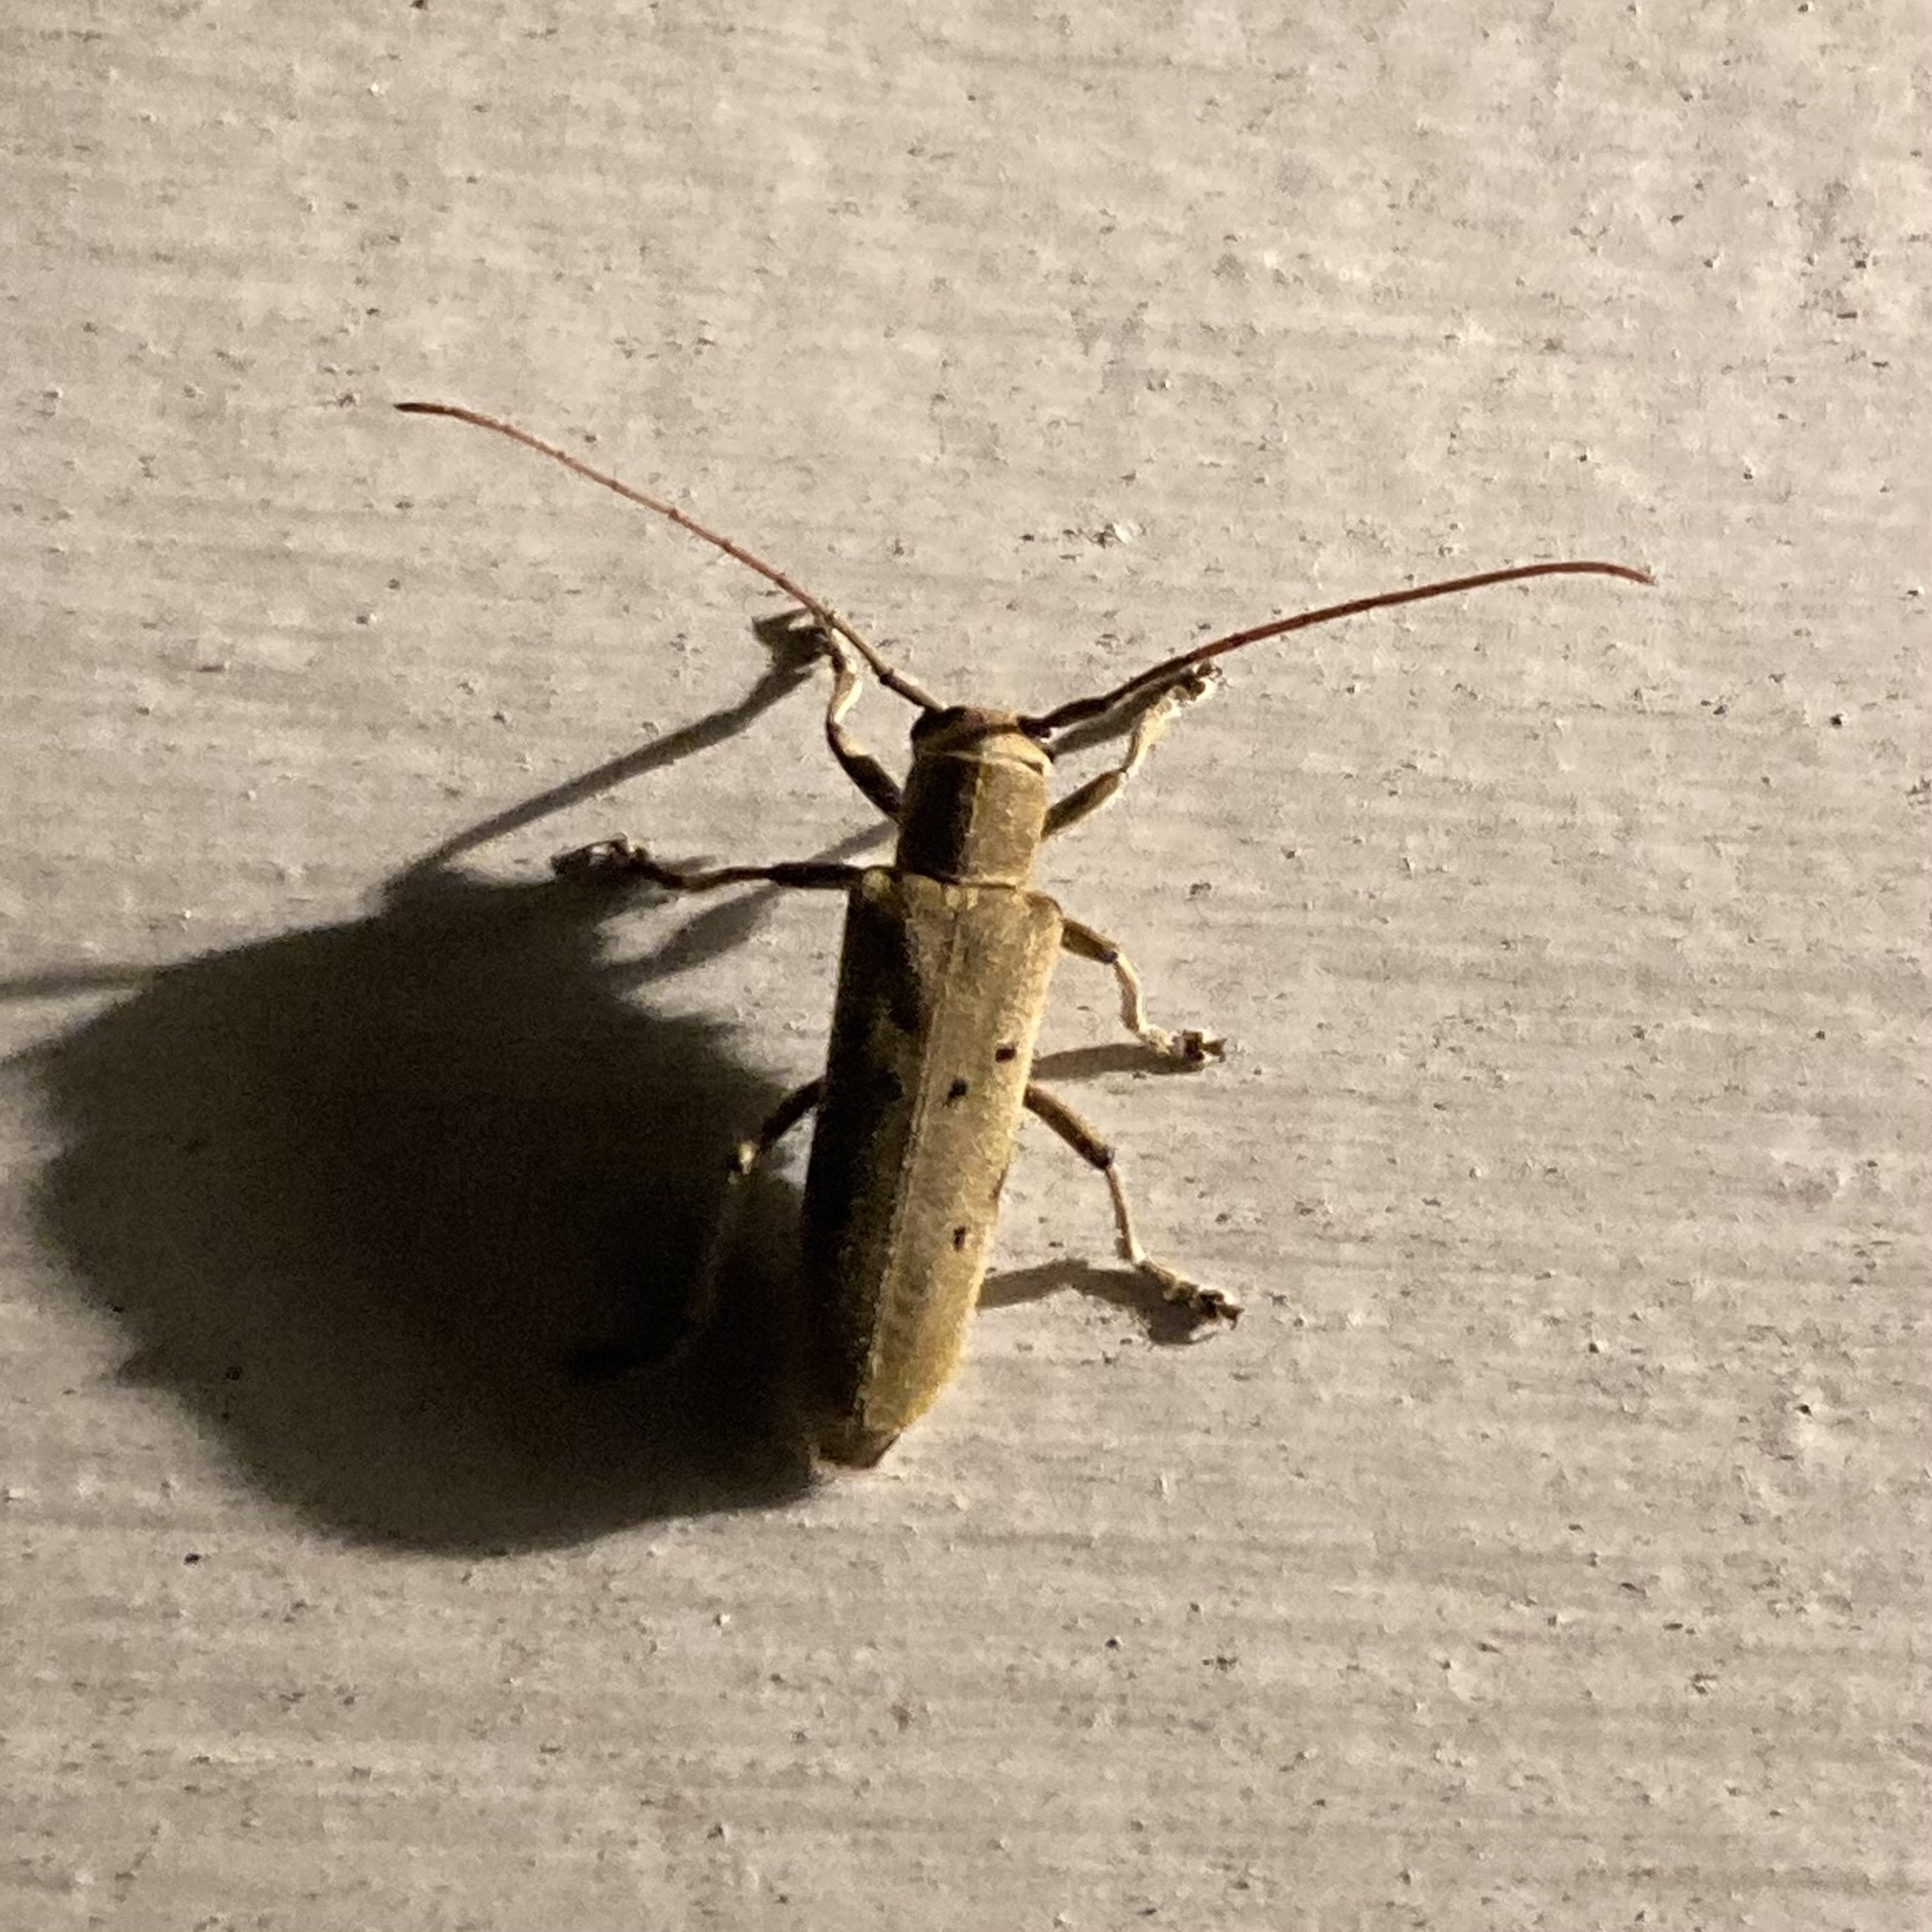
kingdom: Animalia
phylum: Arthropoda
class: Insecta
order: Coleoptera
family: Cerambycidae
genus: Saperda
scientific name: Saperda vestita
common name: Linden borer
